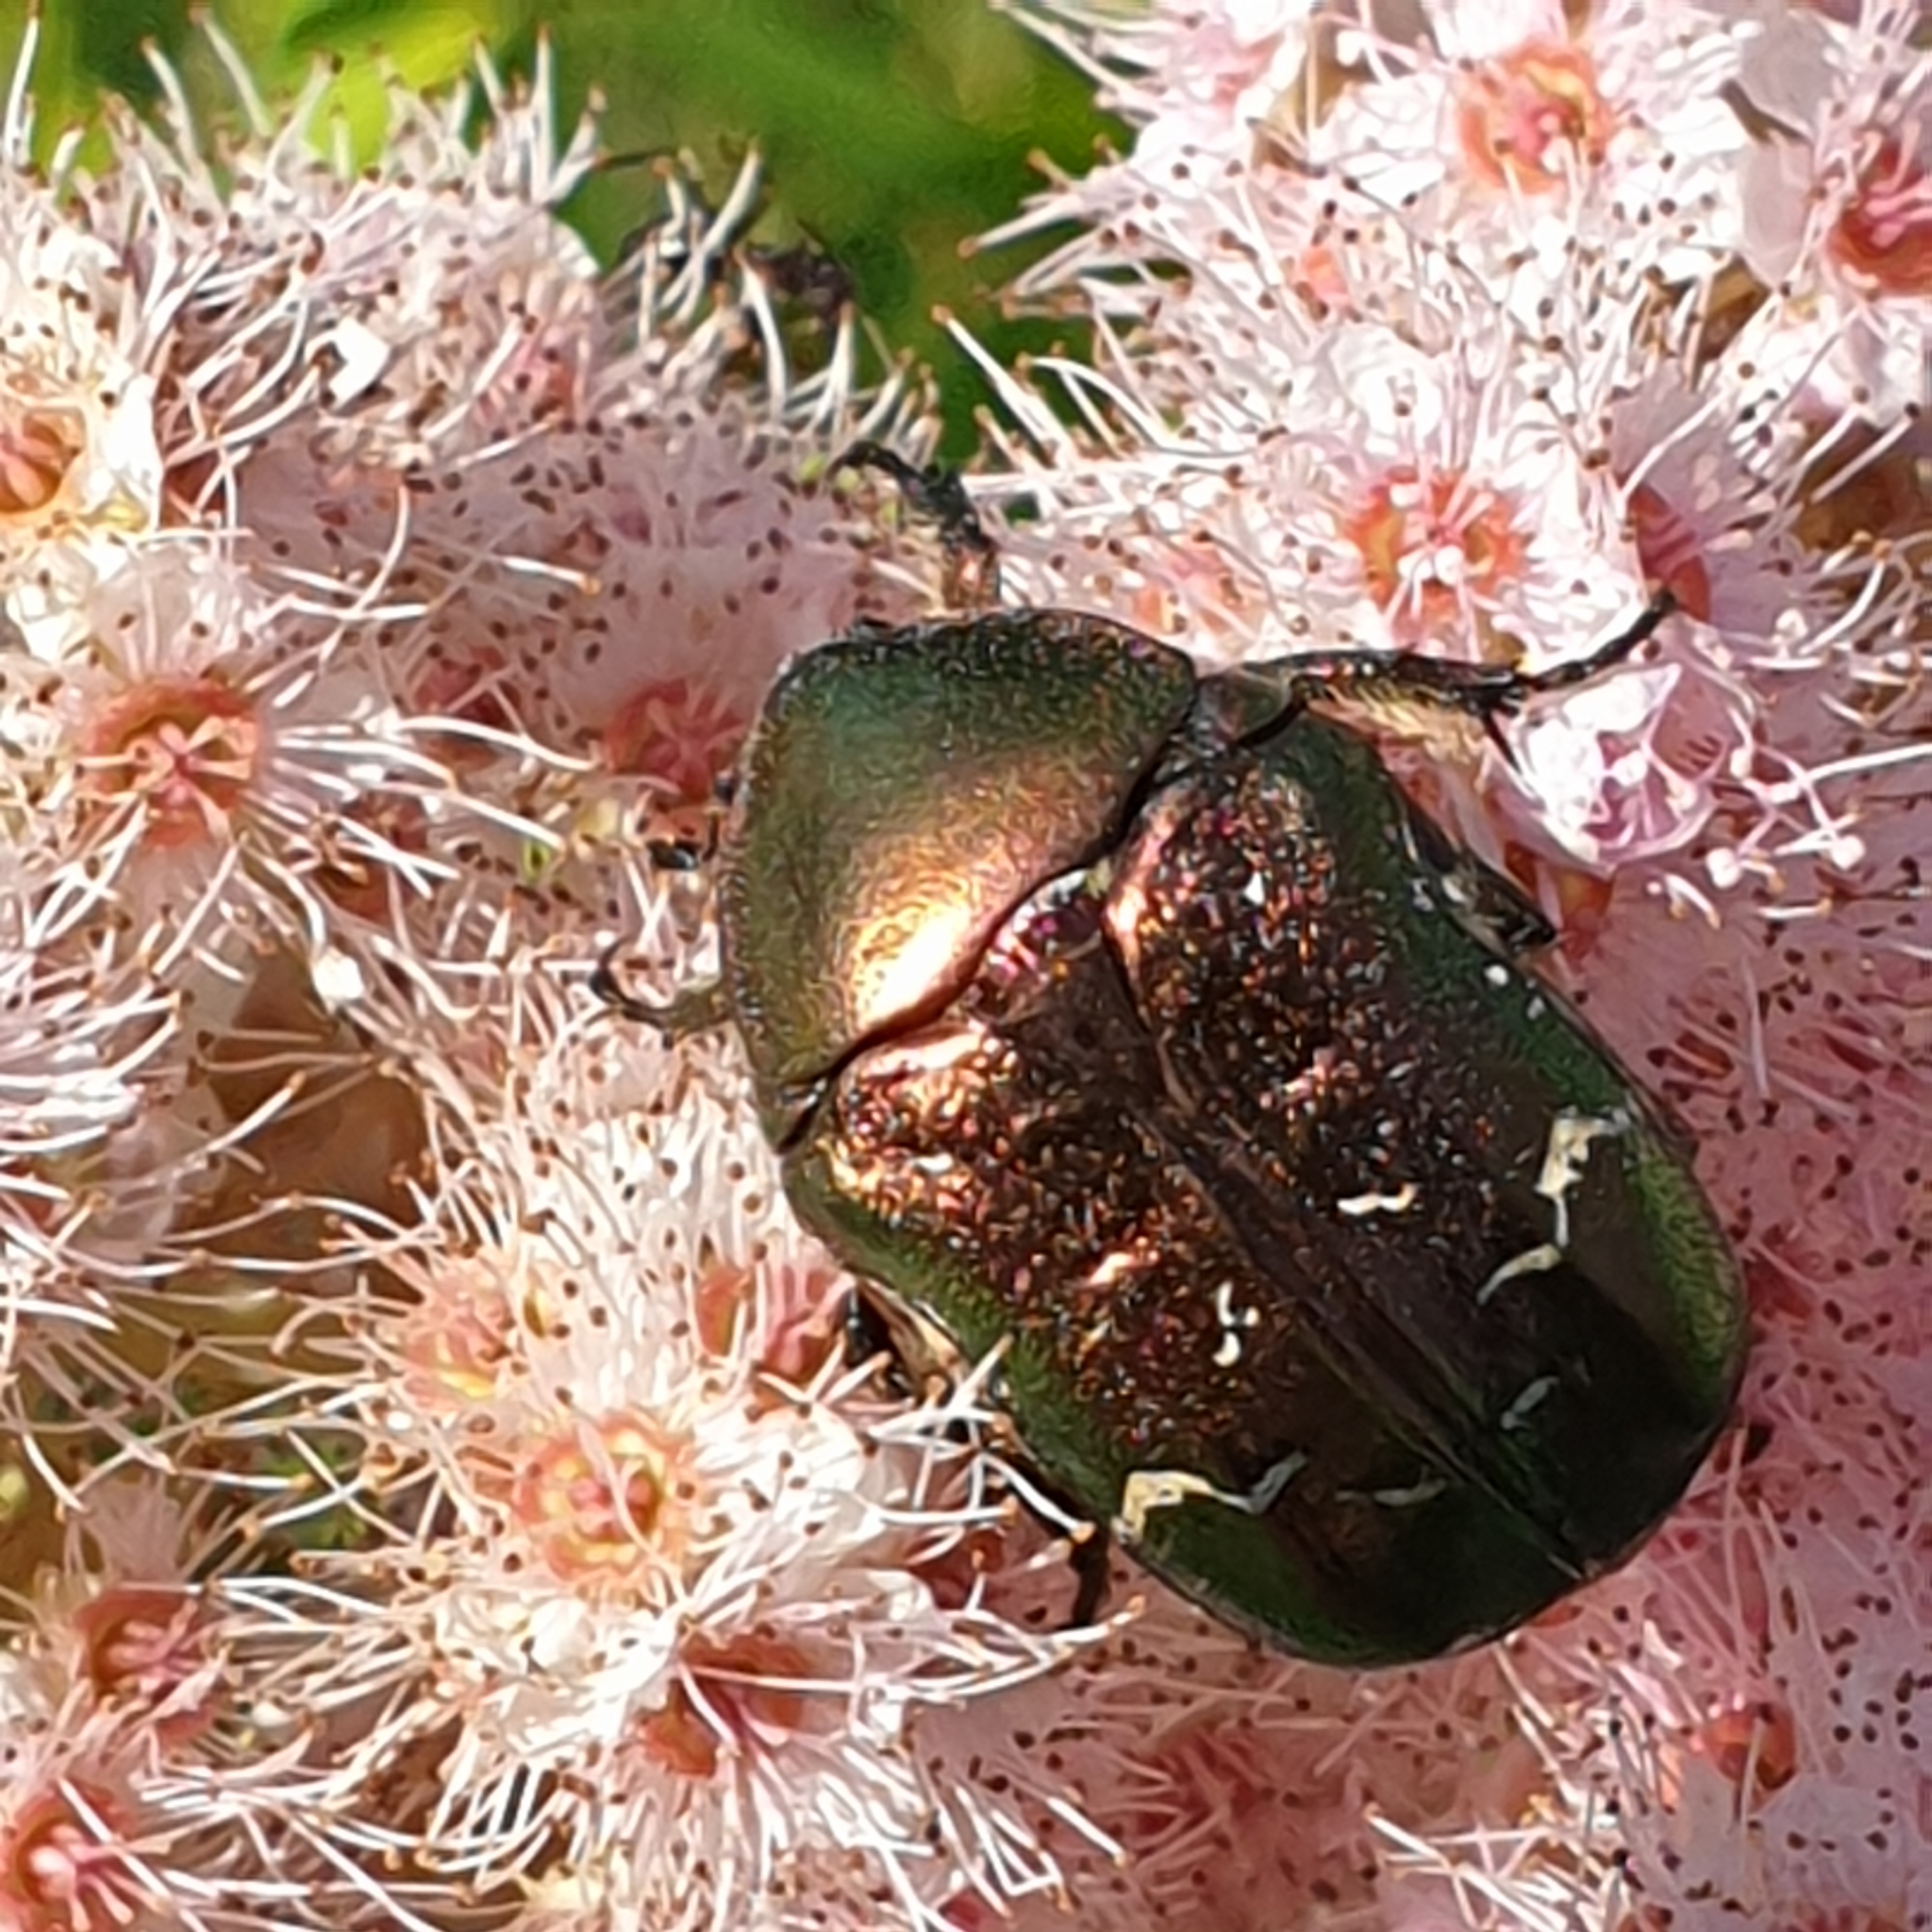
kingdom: Animalia
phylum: Arthropoda
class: Insecta
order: Coleoptera
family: Scarabaeidae
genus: Cetonia
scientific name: Cetonia aurata
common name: Rose chafer
